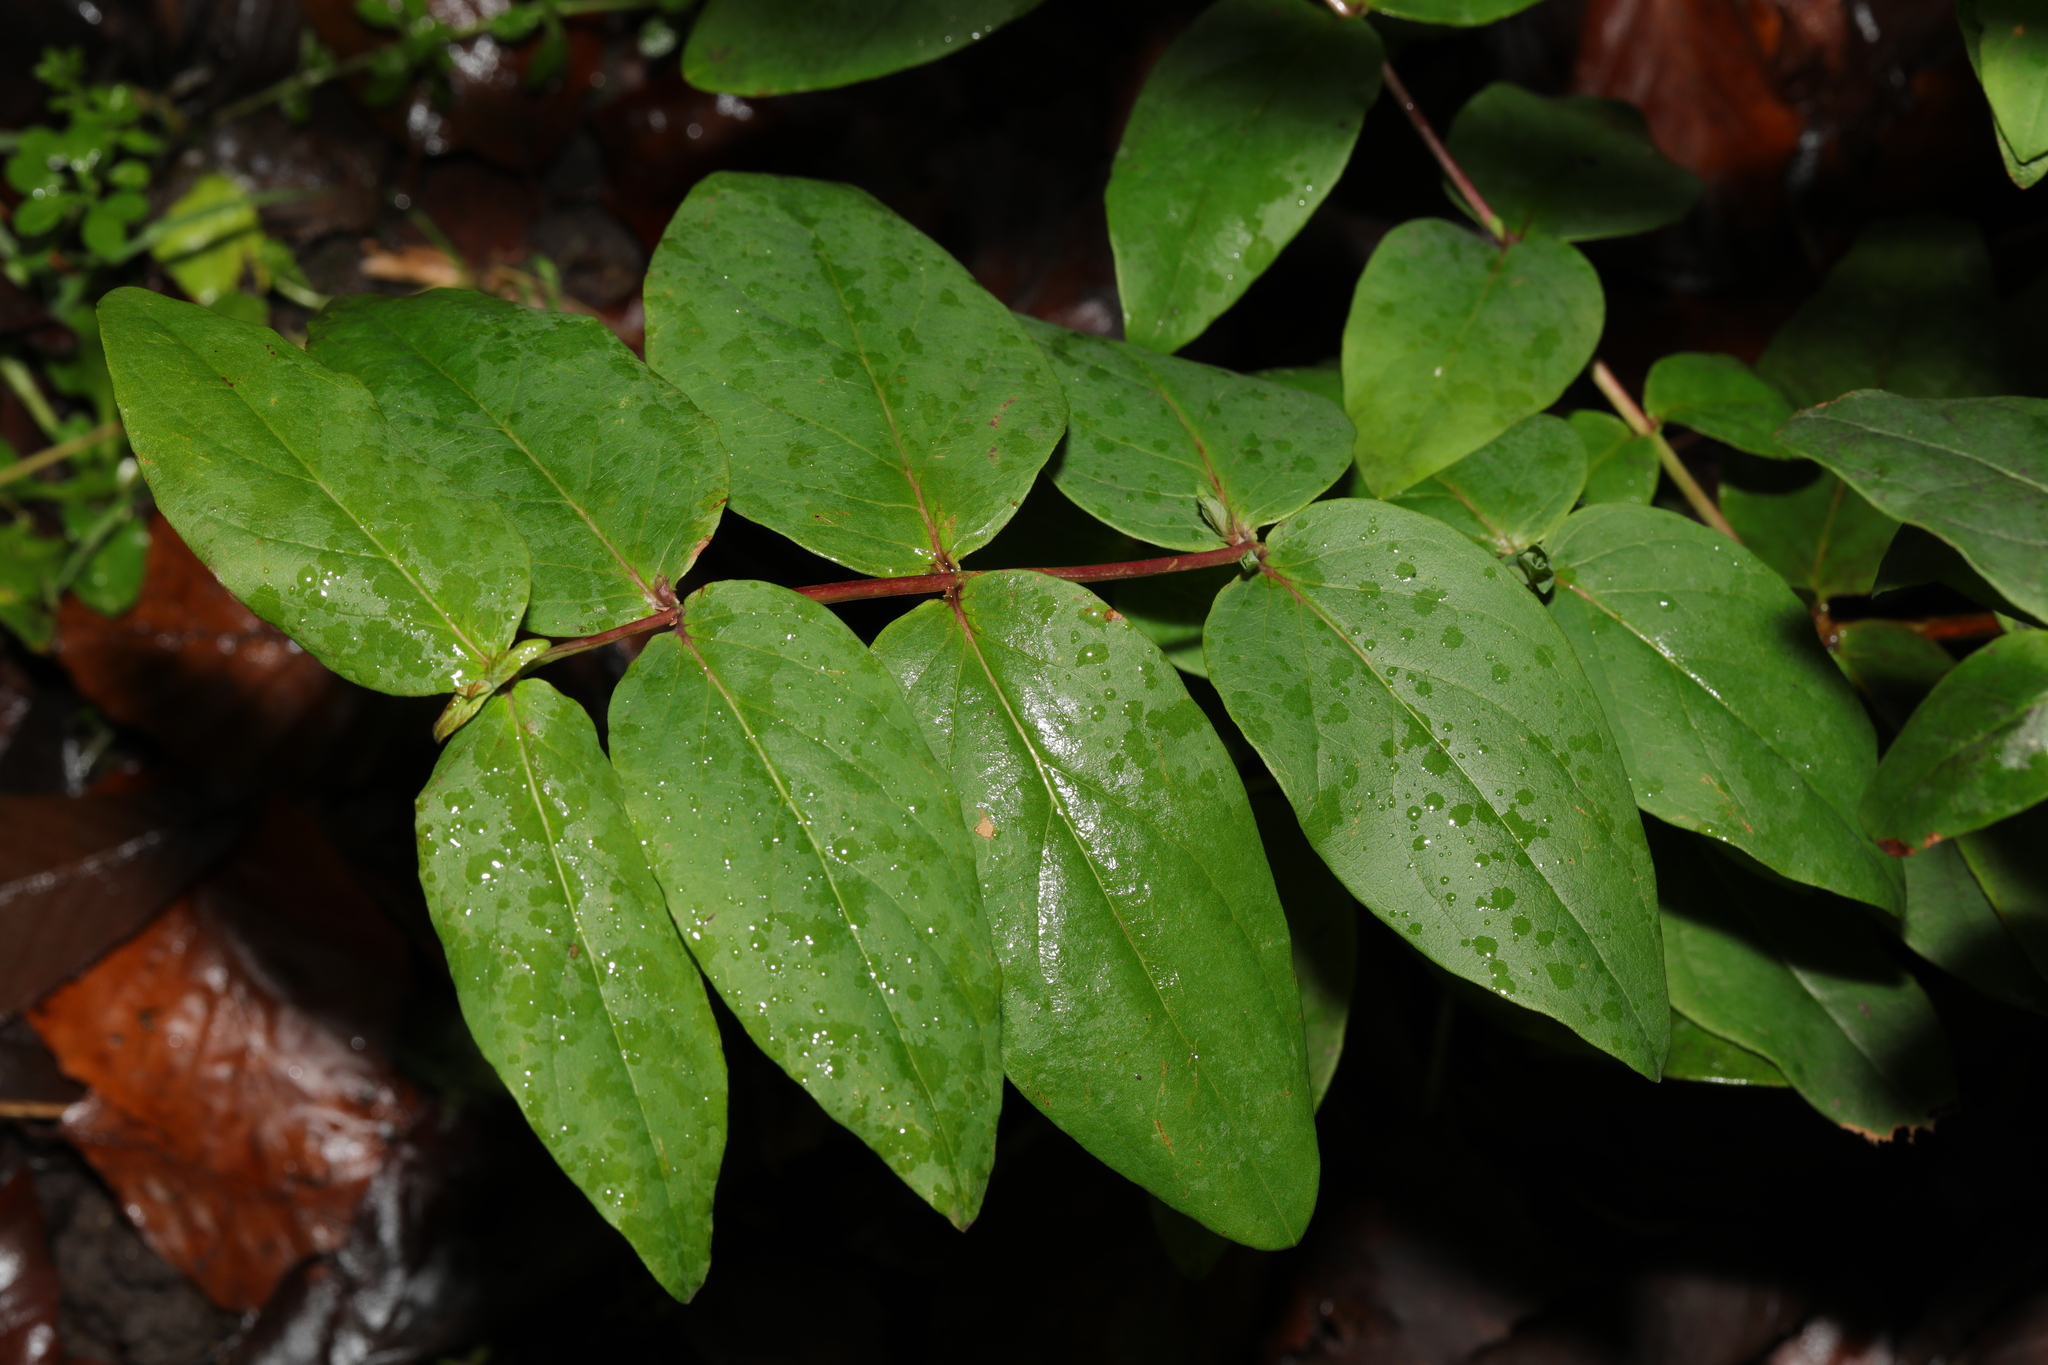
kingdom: Plantae
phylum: Tracheophyta
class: Magnoliopsida
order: Malpighiales
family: Hypericaceae
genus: Hypericum
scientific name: Hypericum androsaemum
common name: Sweet-amber
